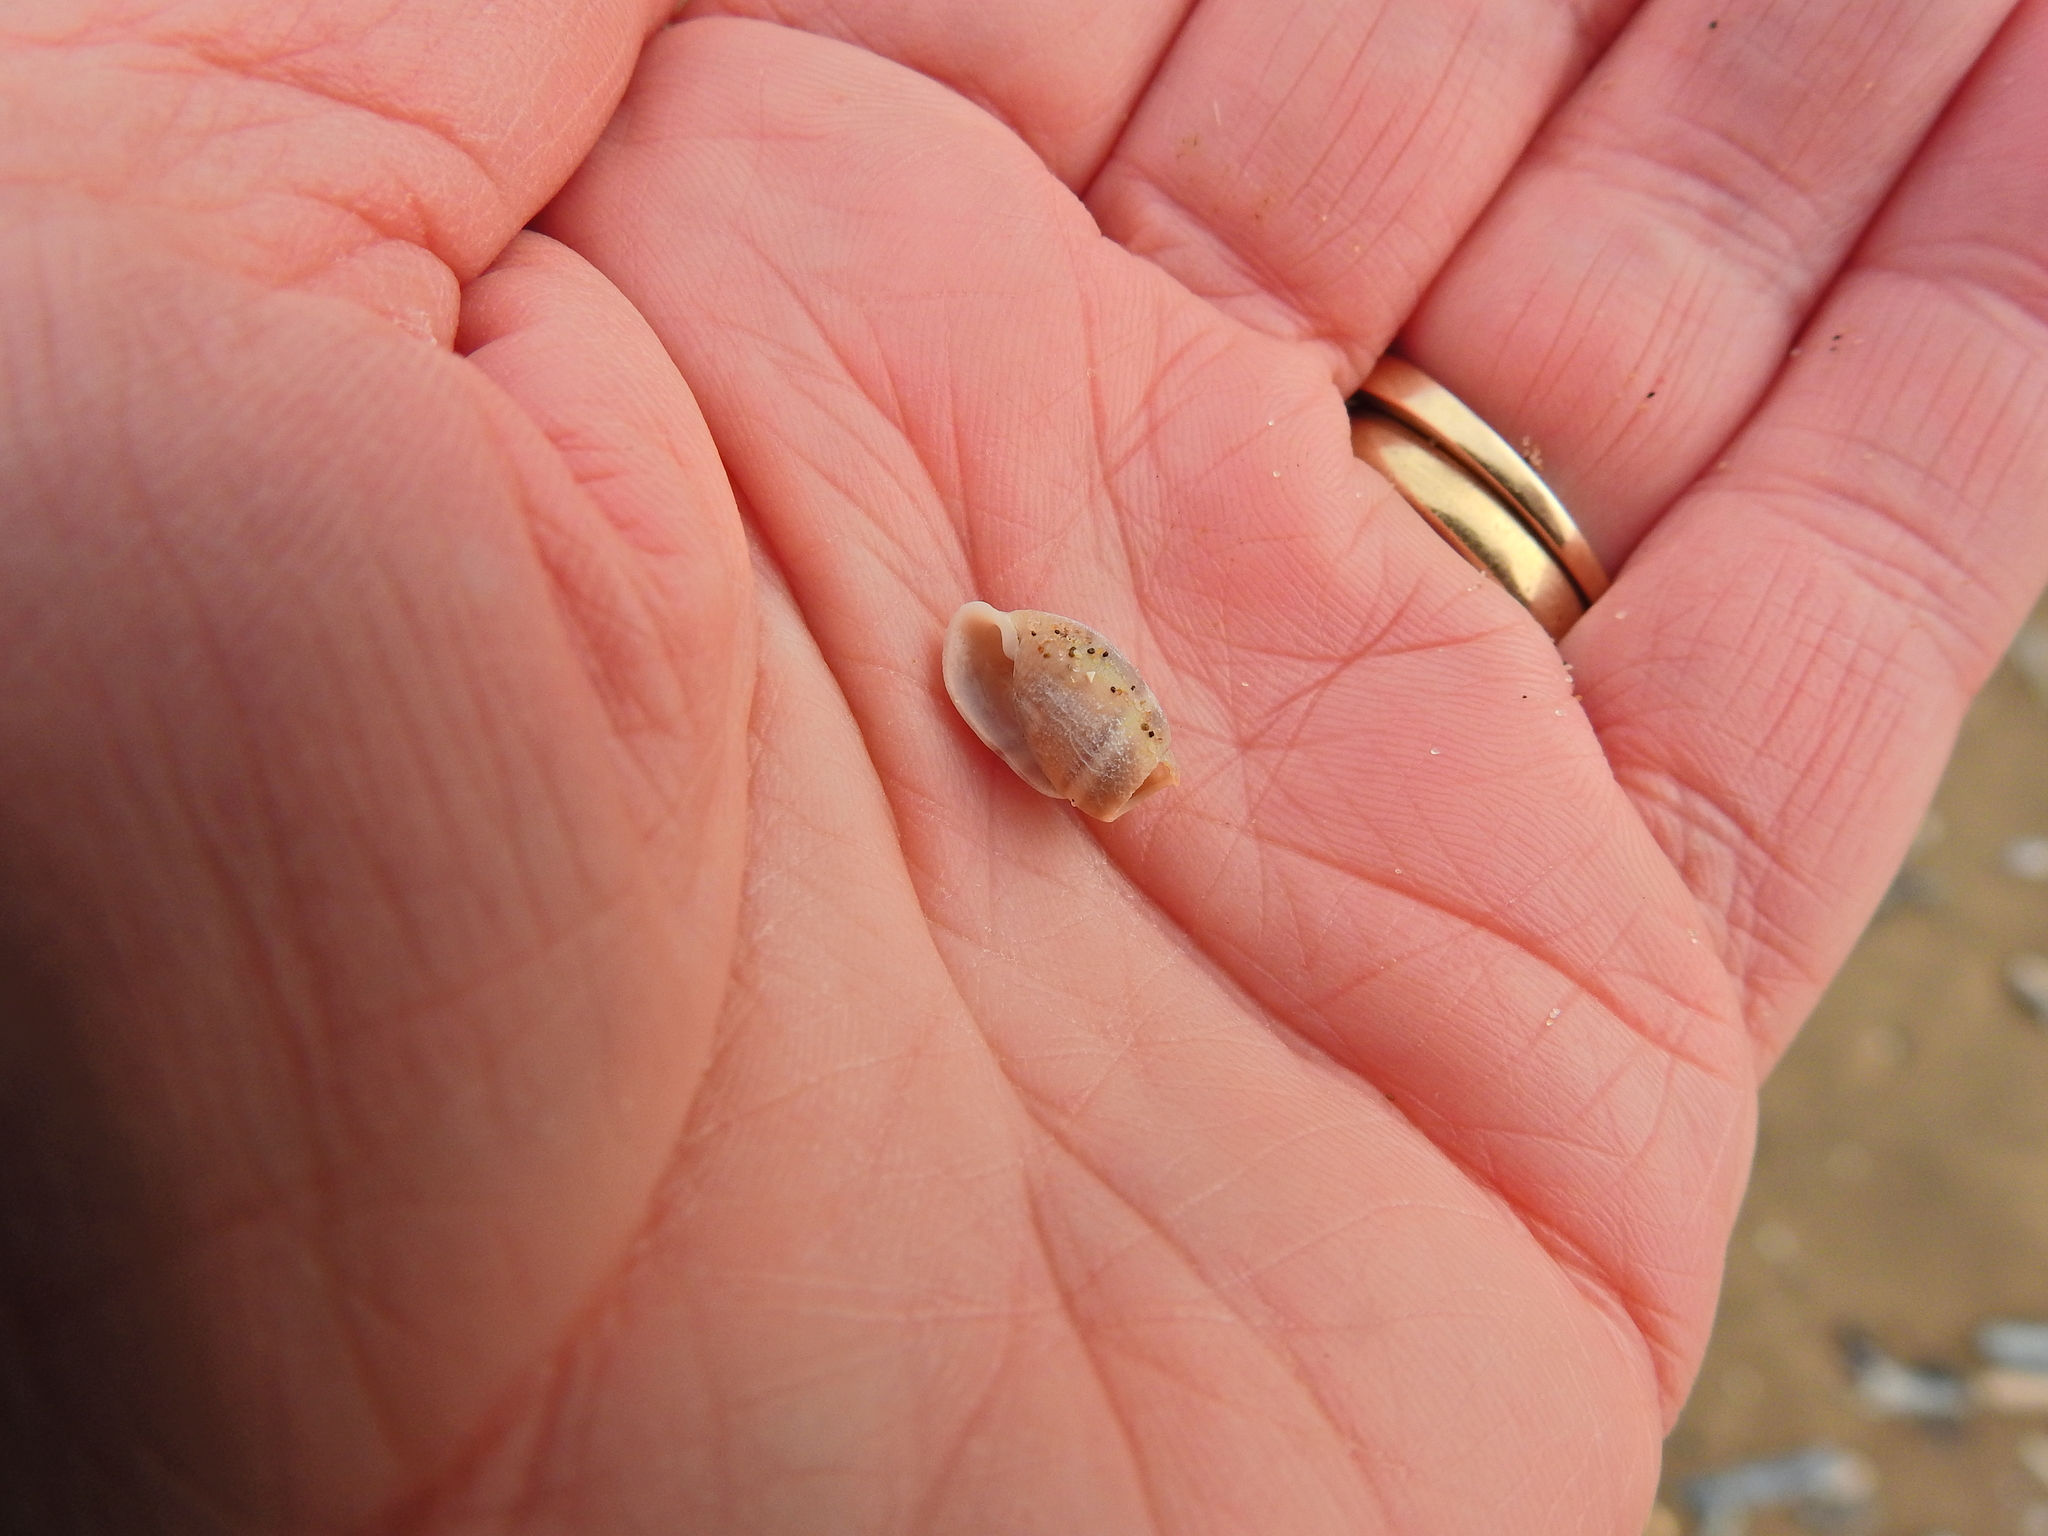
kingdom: Animalia
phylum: Mollusca
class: Gastropoda
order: Cephalaspidea
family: Acteonidae
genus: Acteon
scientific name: Acteon tornatilis
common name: European acteon
